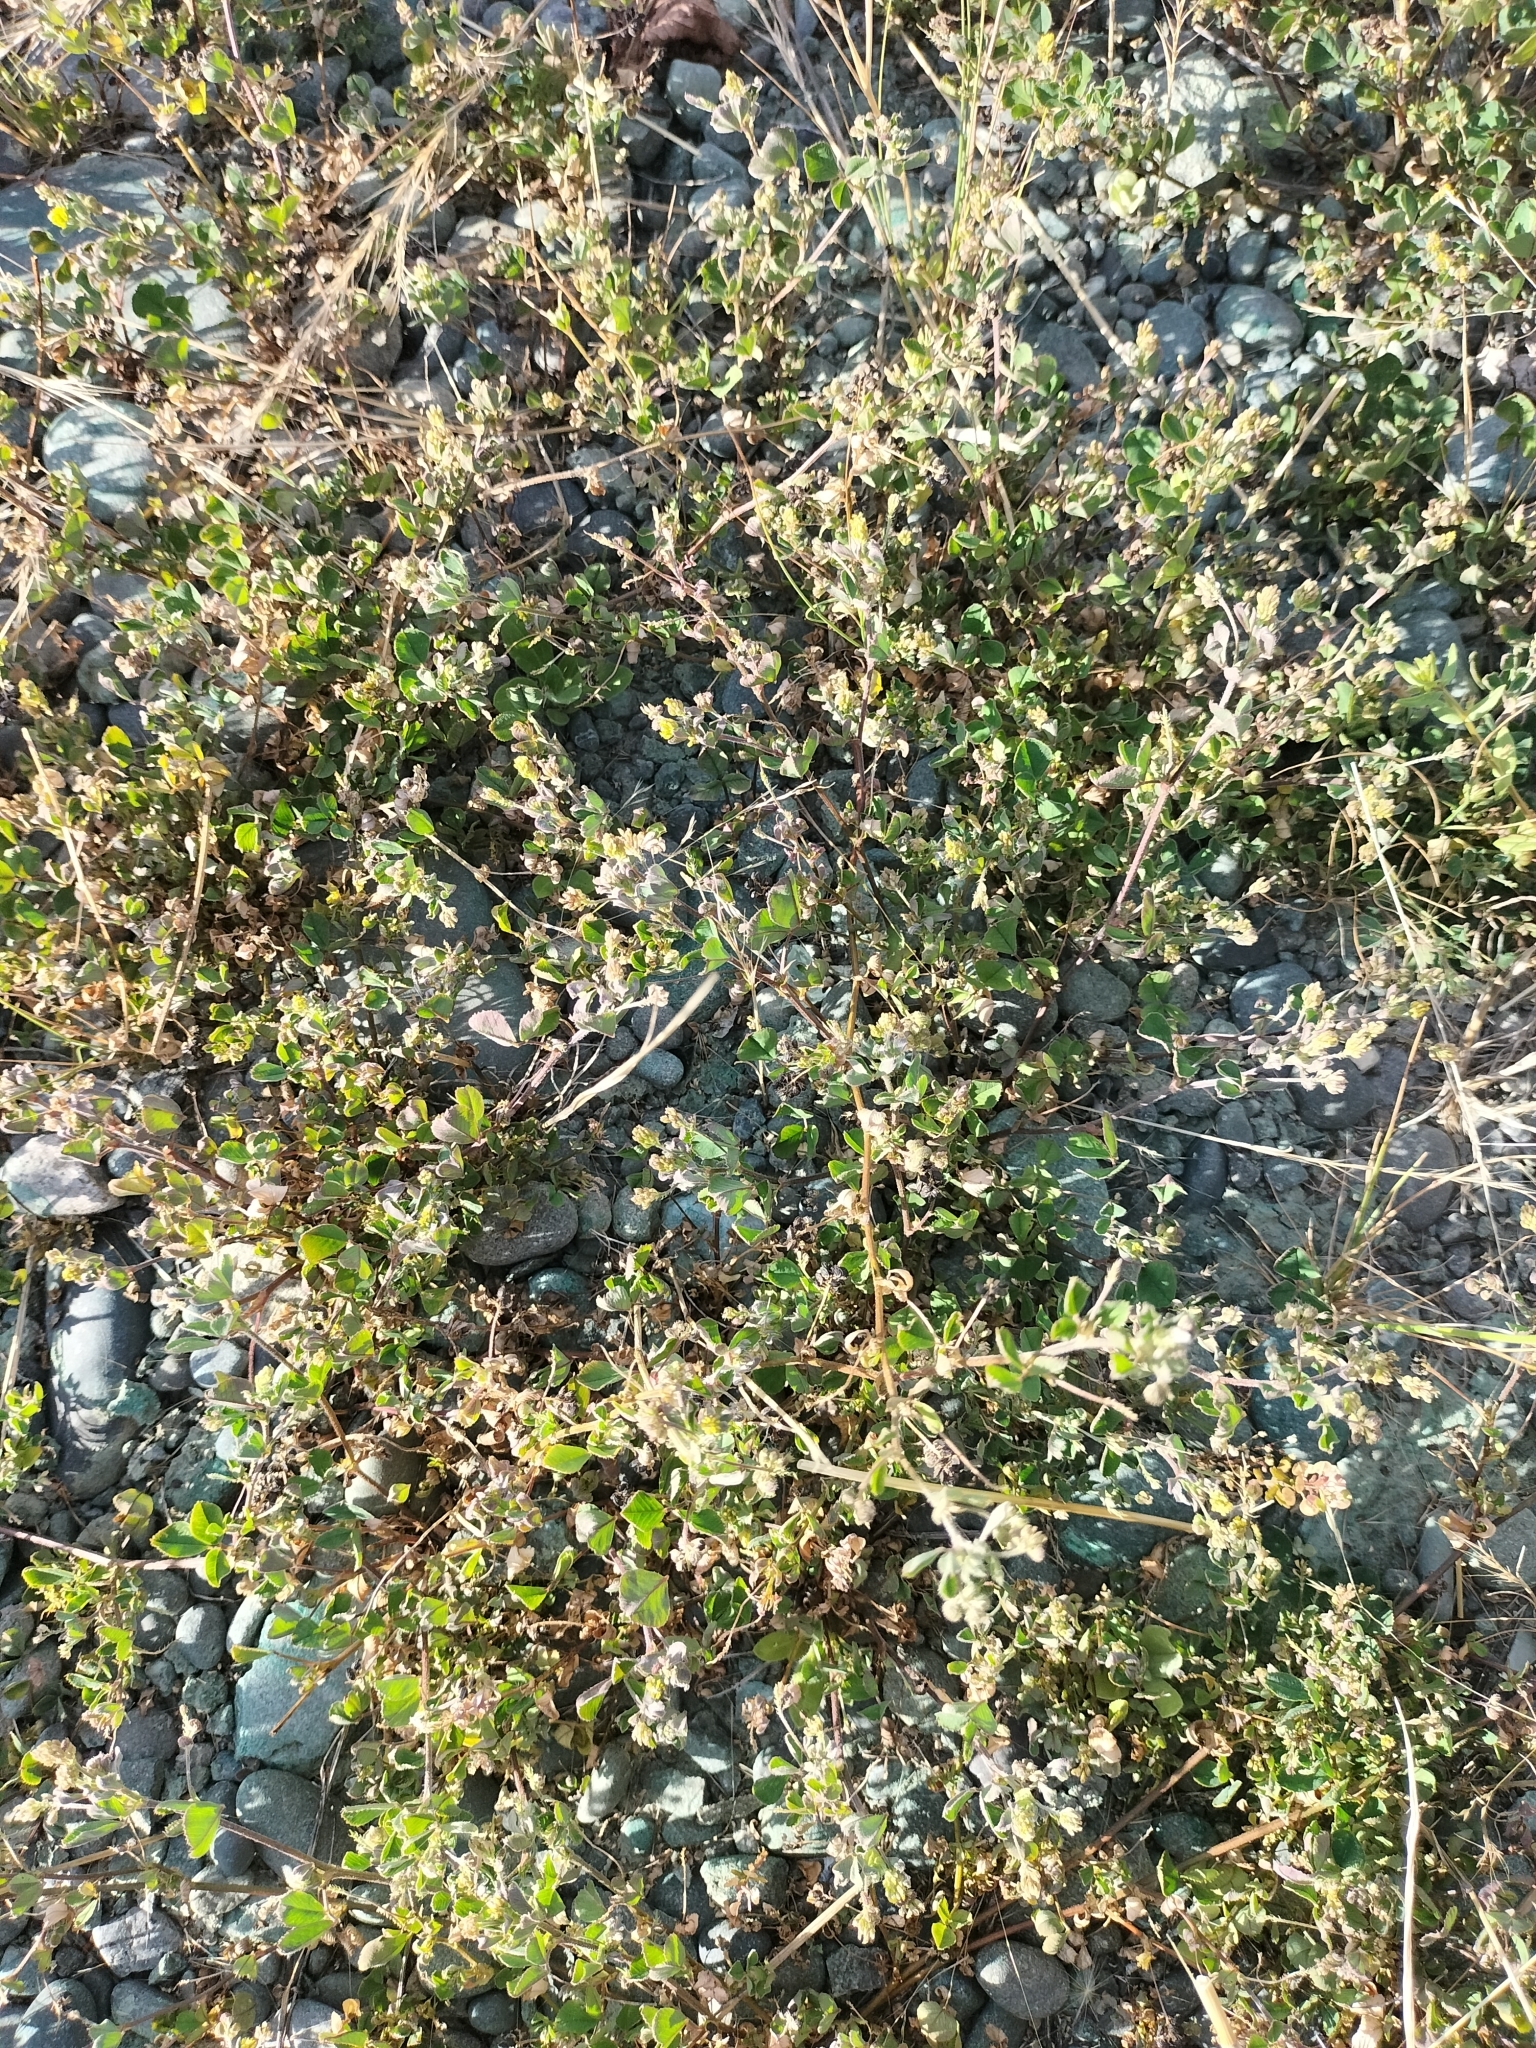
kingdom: Plantae
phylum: Tracheophyta
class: Magnoliopsida
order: Fabales
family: Fabaceae
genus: Medicago
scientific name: Medicago lupulina
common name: Black medick
